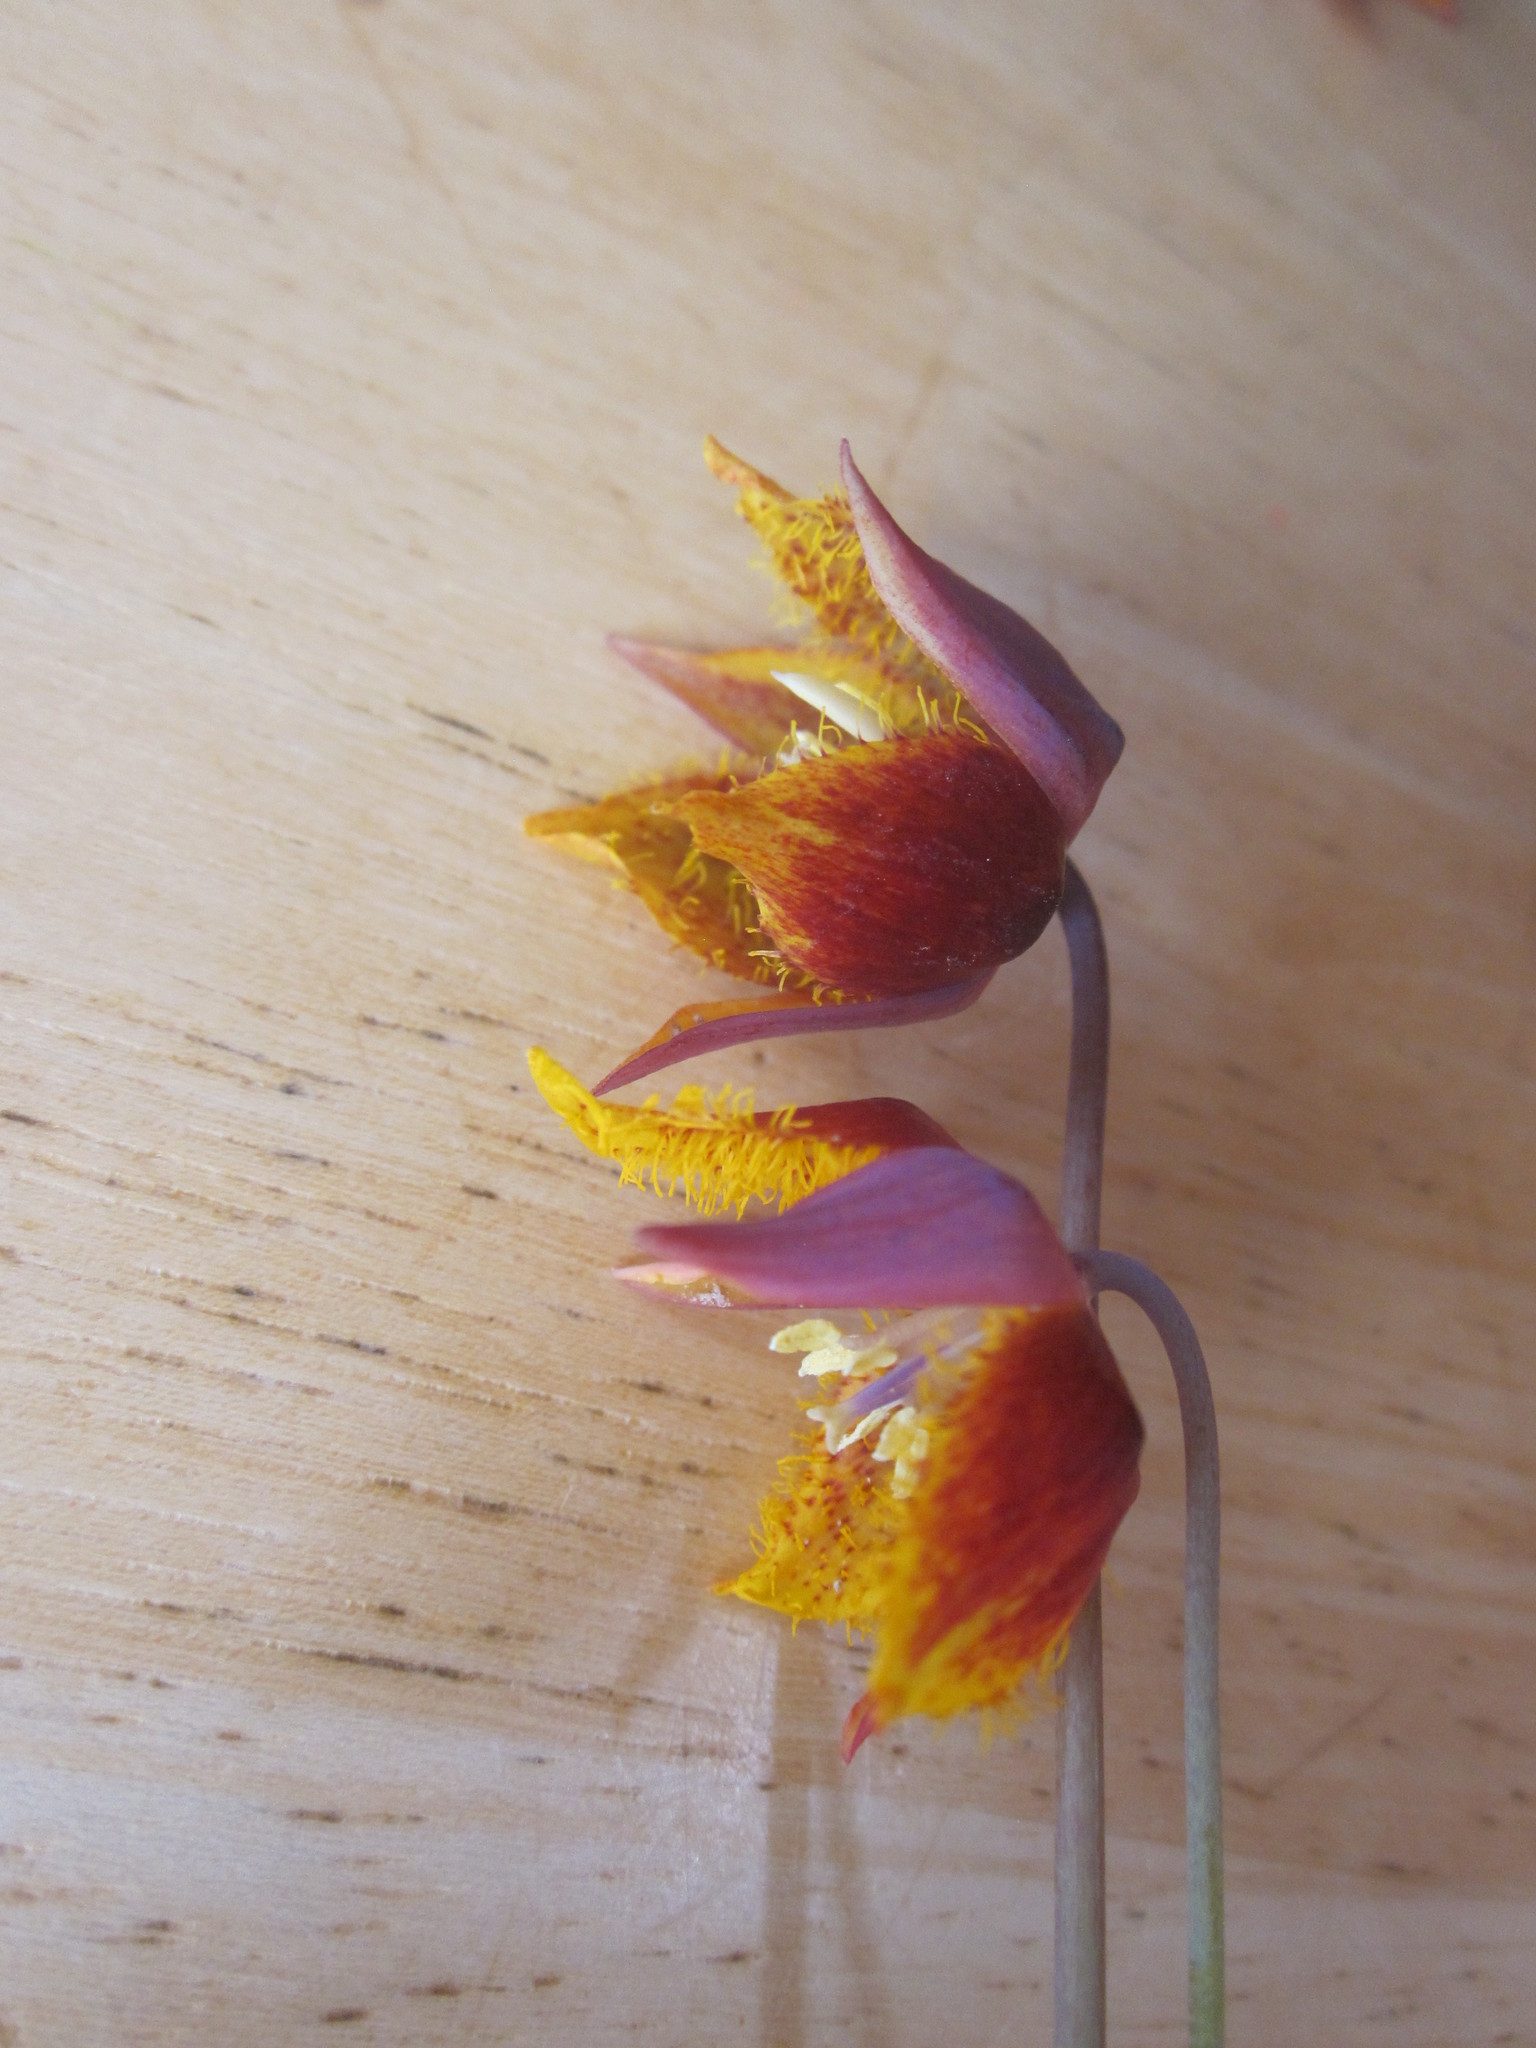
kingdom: Plantae
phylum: Tracheophyta
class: Liliopsida
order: Liliales
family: Liliaceae
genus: Calochortus
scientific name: Calochortus barbatus
